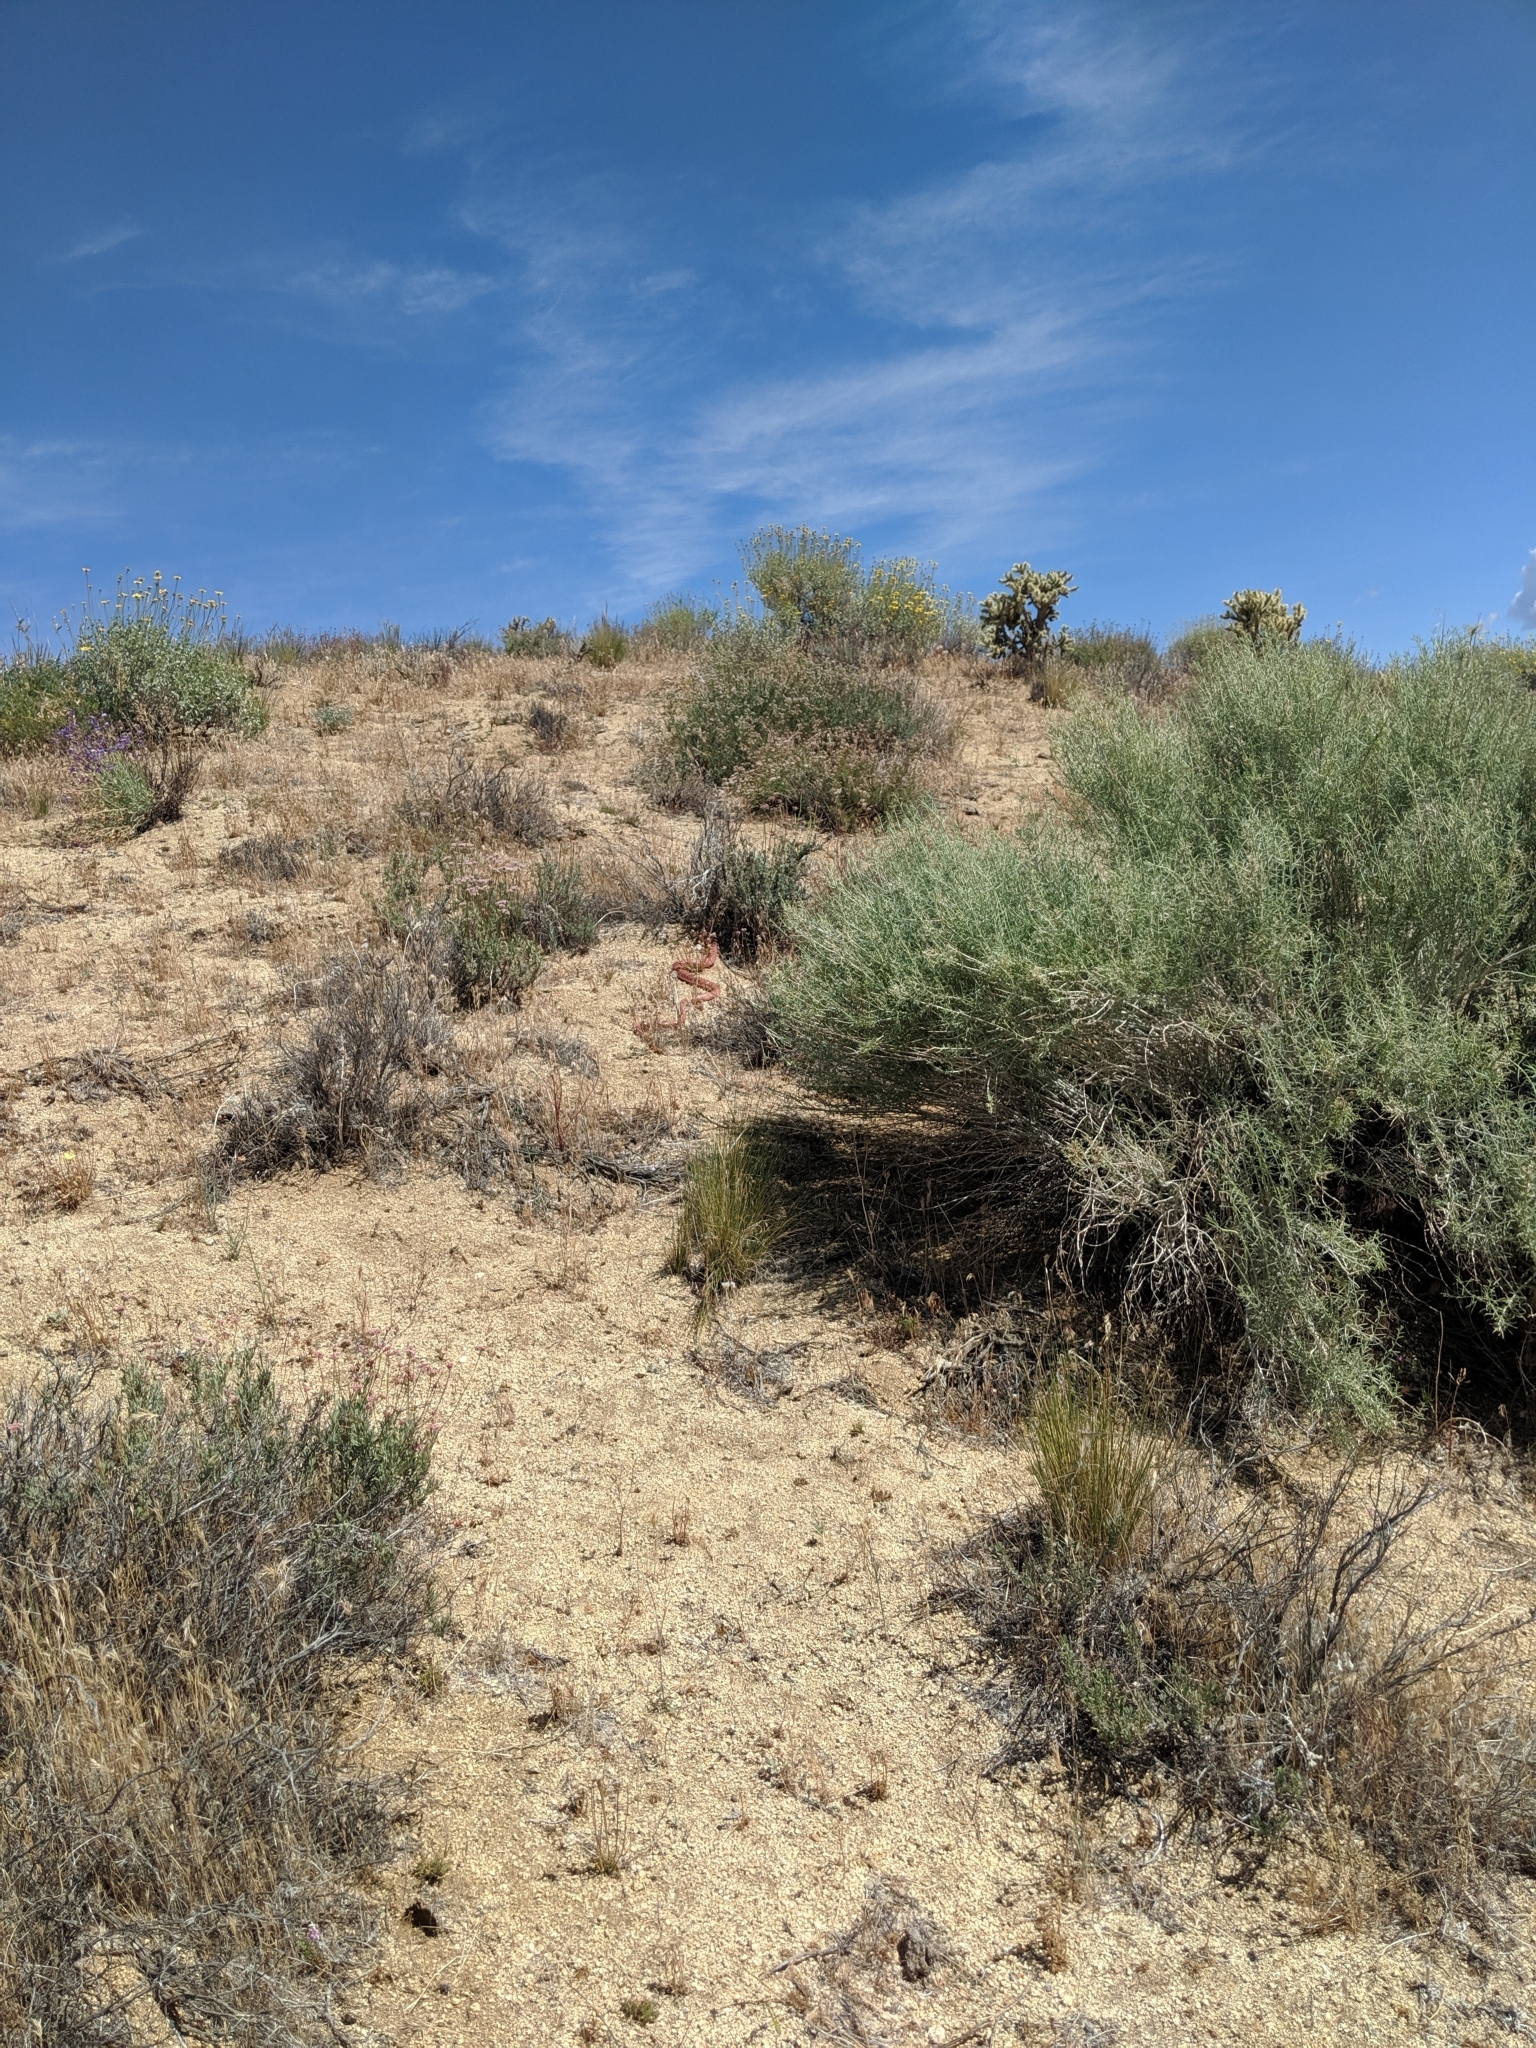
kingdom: Animalia
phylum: Chordata
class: Squamata
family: Colubridae
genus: Masticophis
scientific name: Masticophis flagellum
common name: Coachwhip
